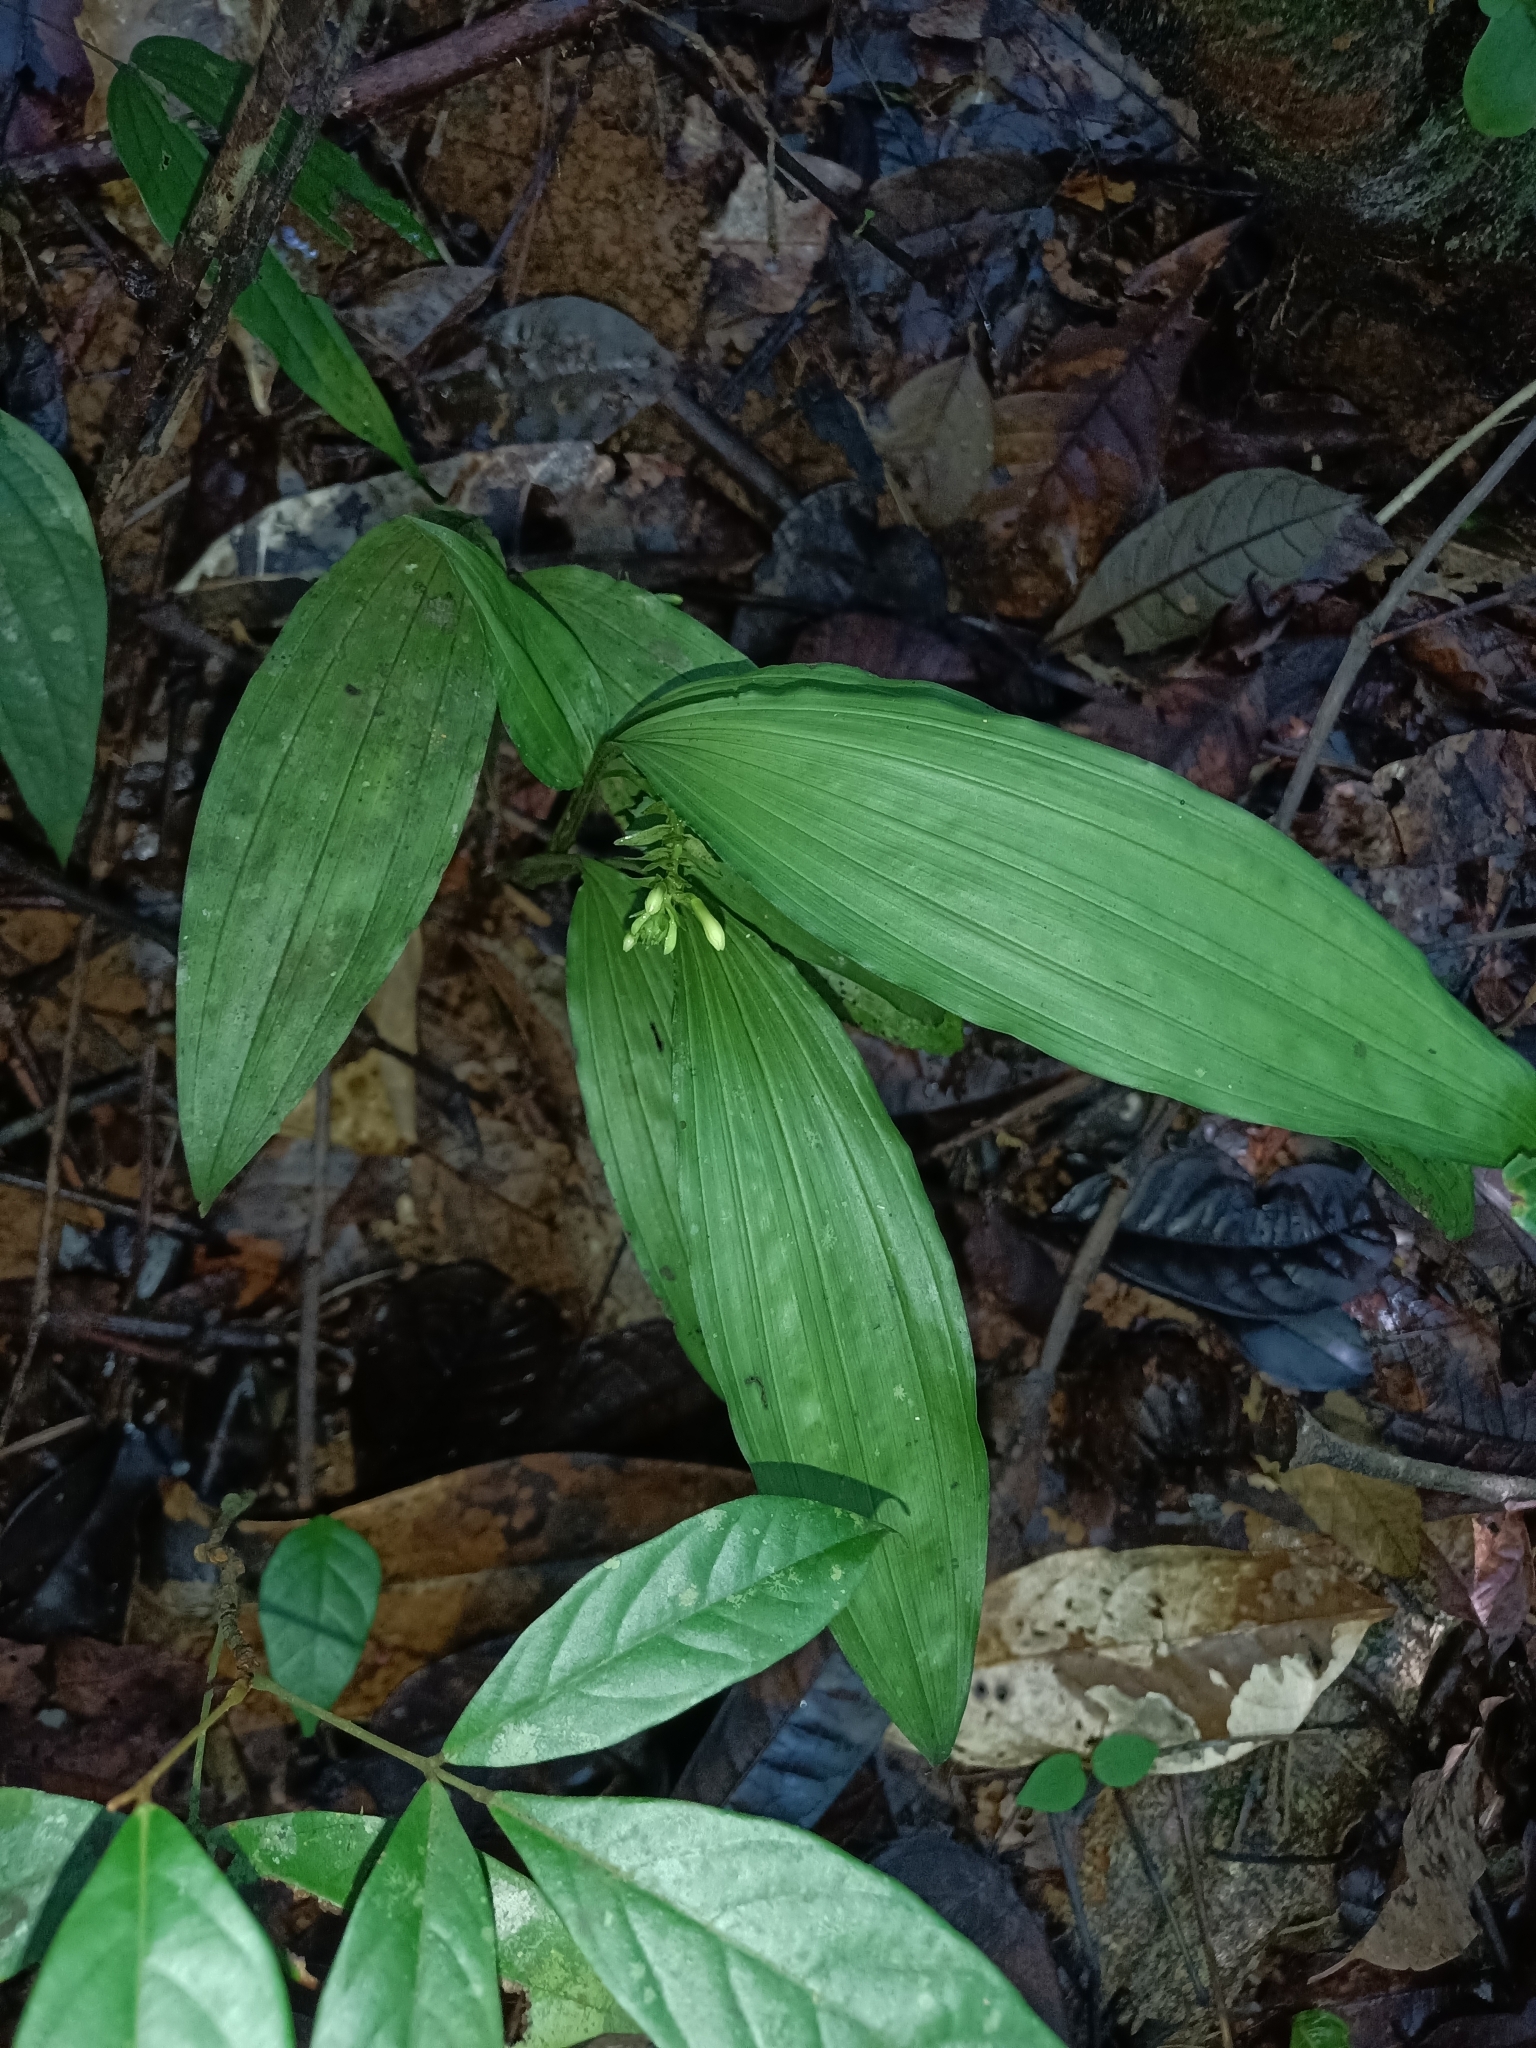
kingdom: Plantae
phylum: Tracheophyta
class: Liliopsida
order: Asparagales
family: Orchidaceae
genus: Palmorchis
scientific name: Palmorchis pabstii
